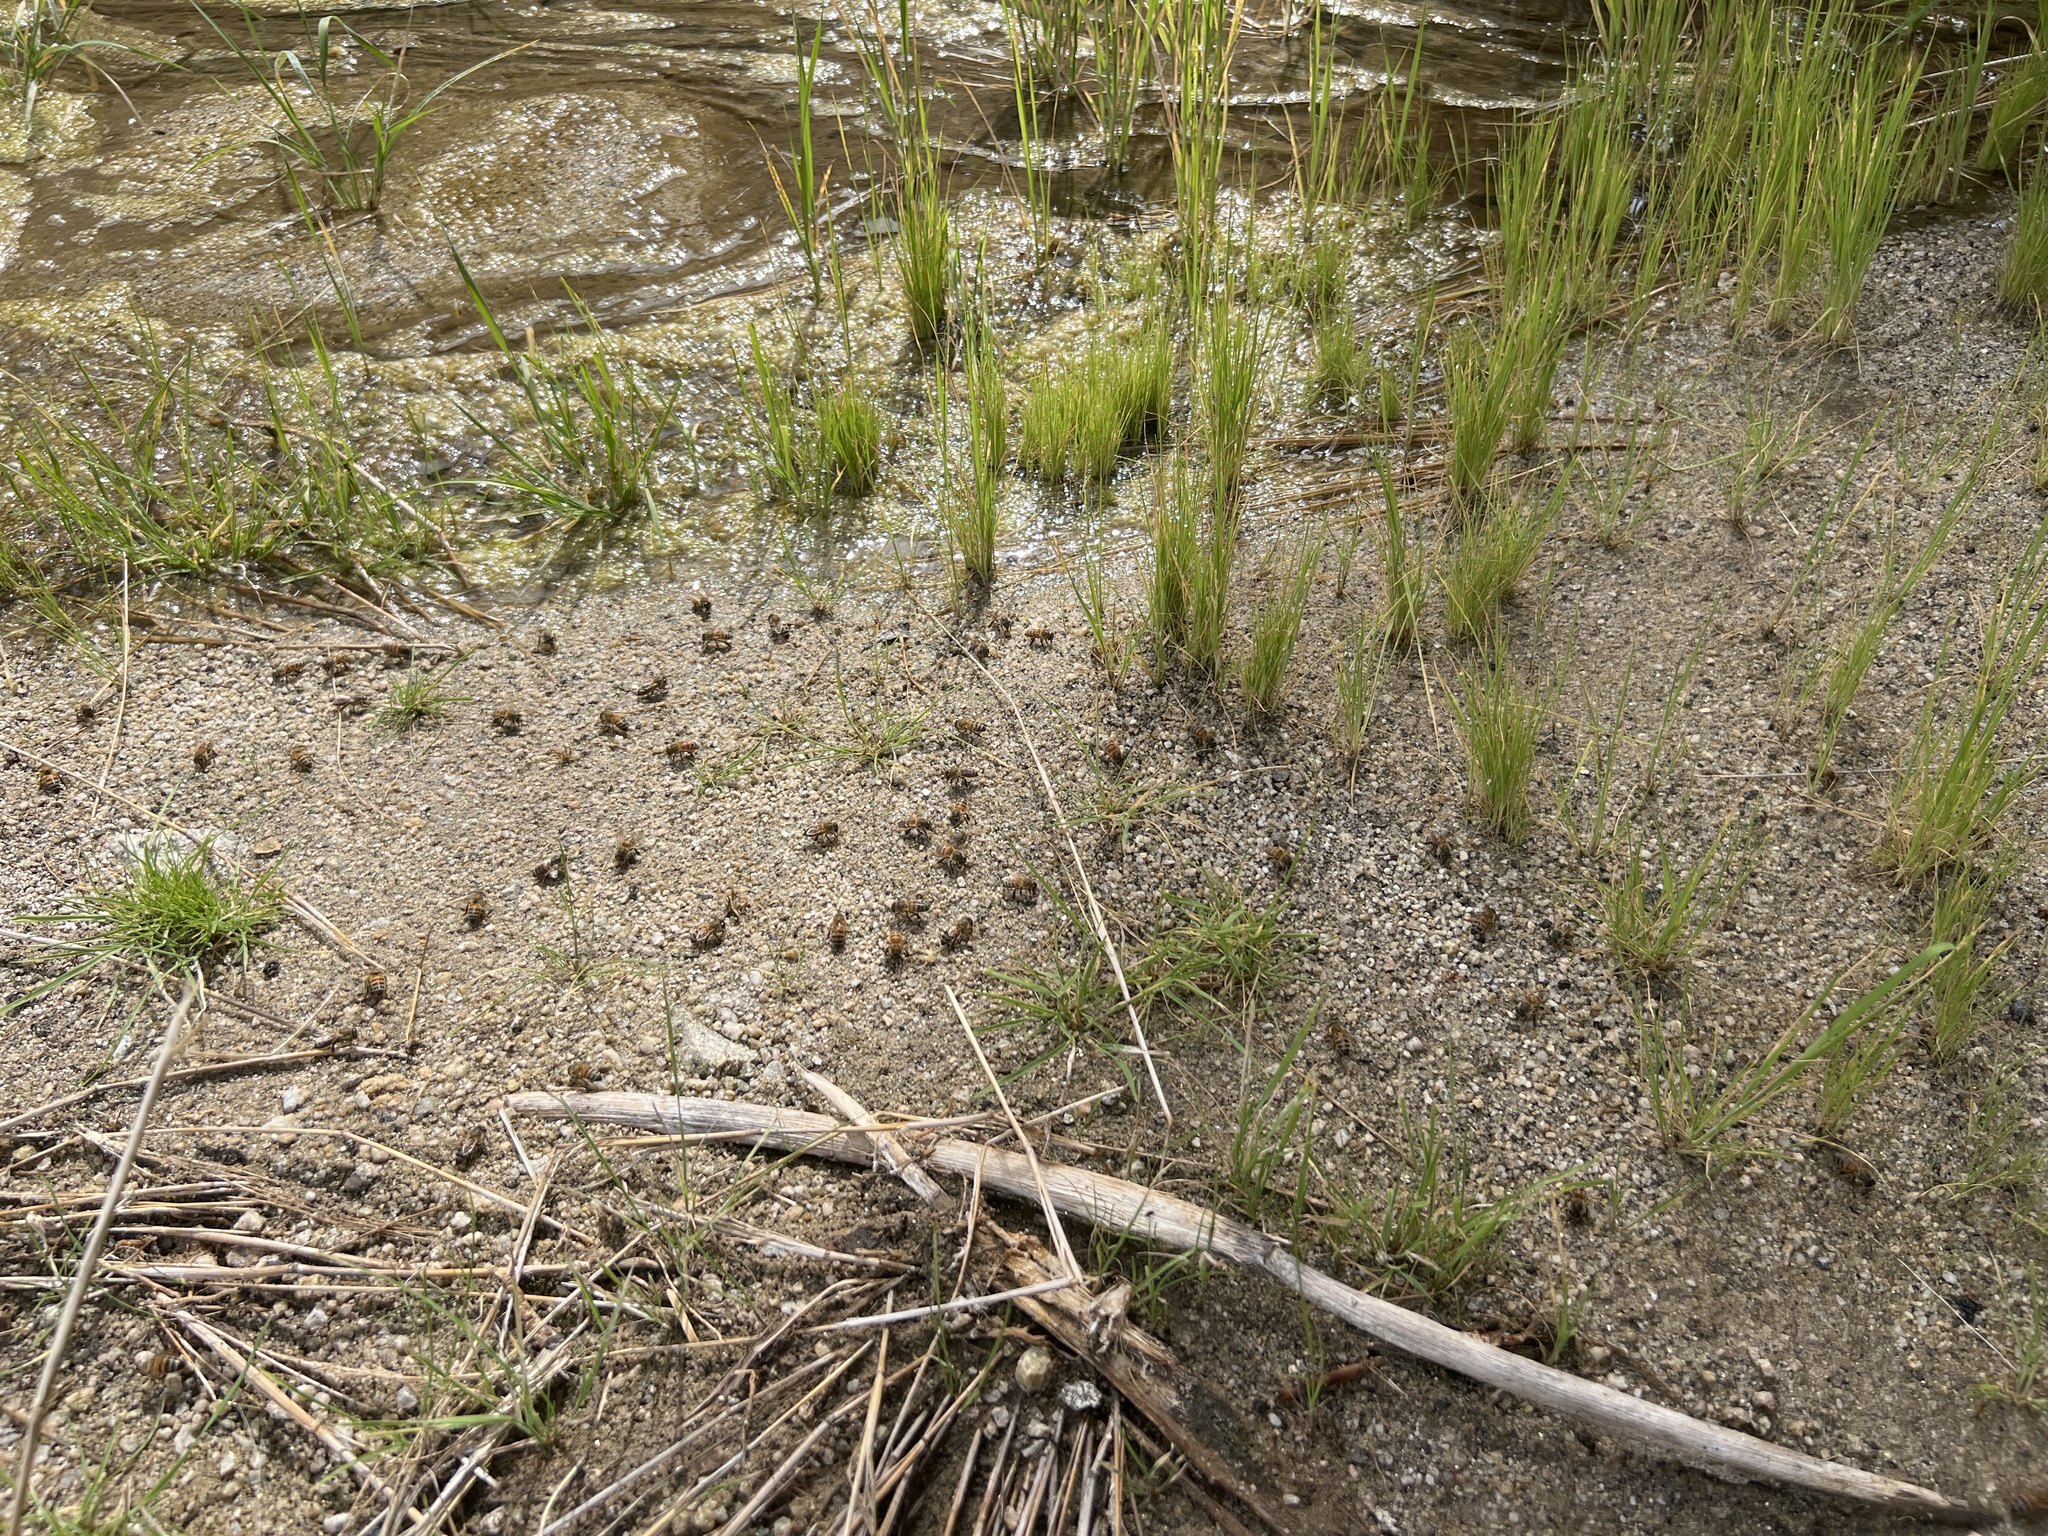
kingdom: Animalia
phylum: Arthropoda
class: Insecta
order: Hymenoptera
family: Apidae
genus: Apis
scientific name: Apis mellifera
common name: Honey bee
